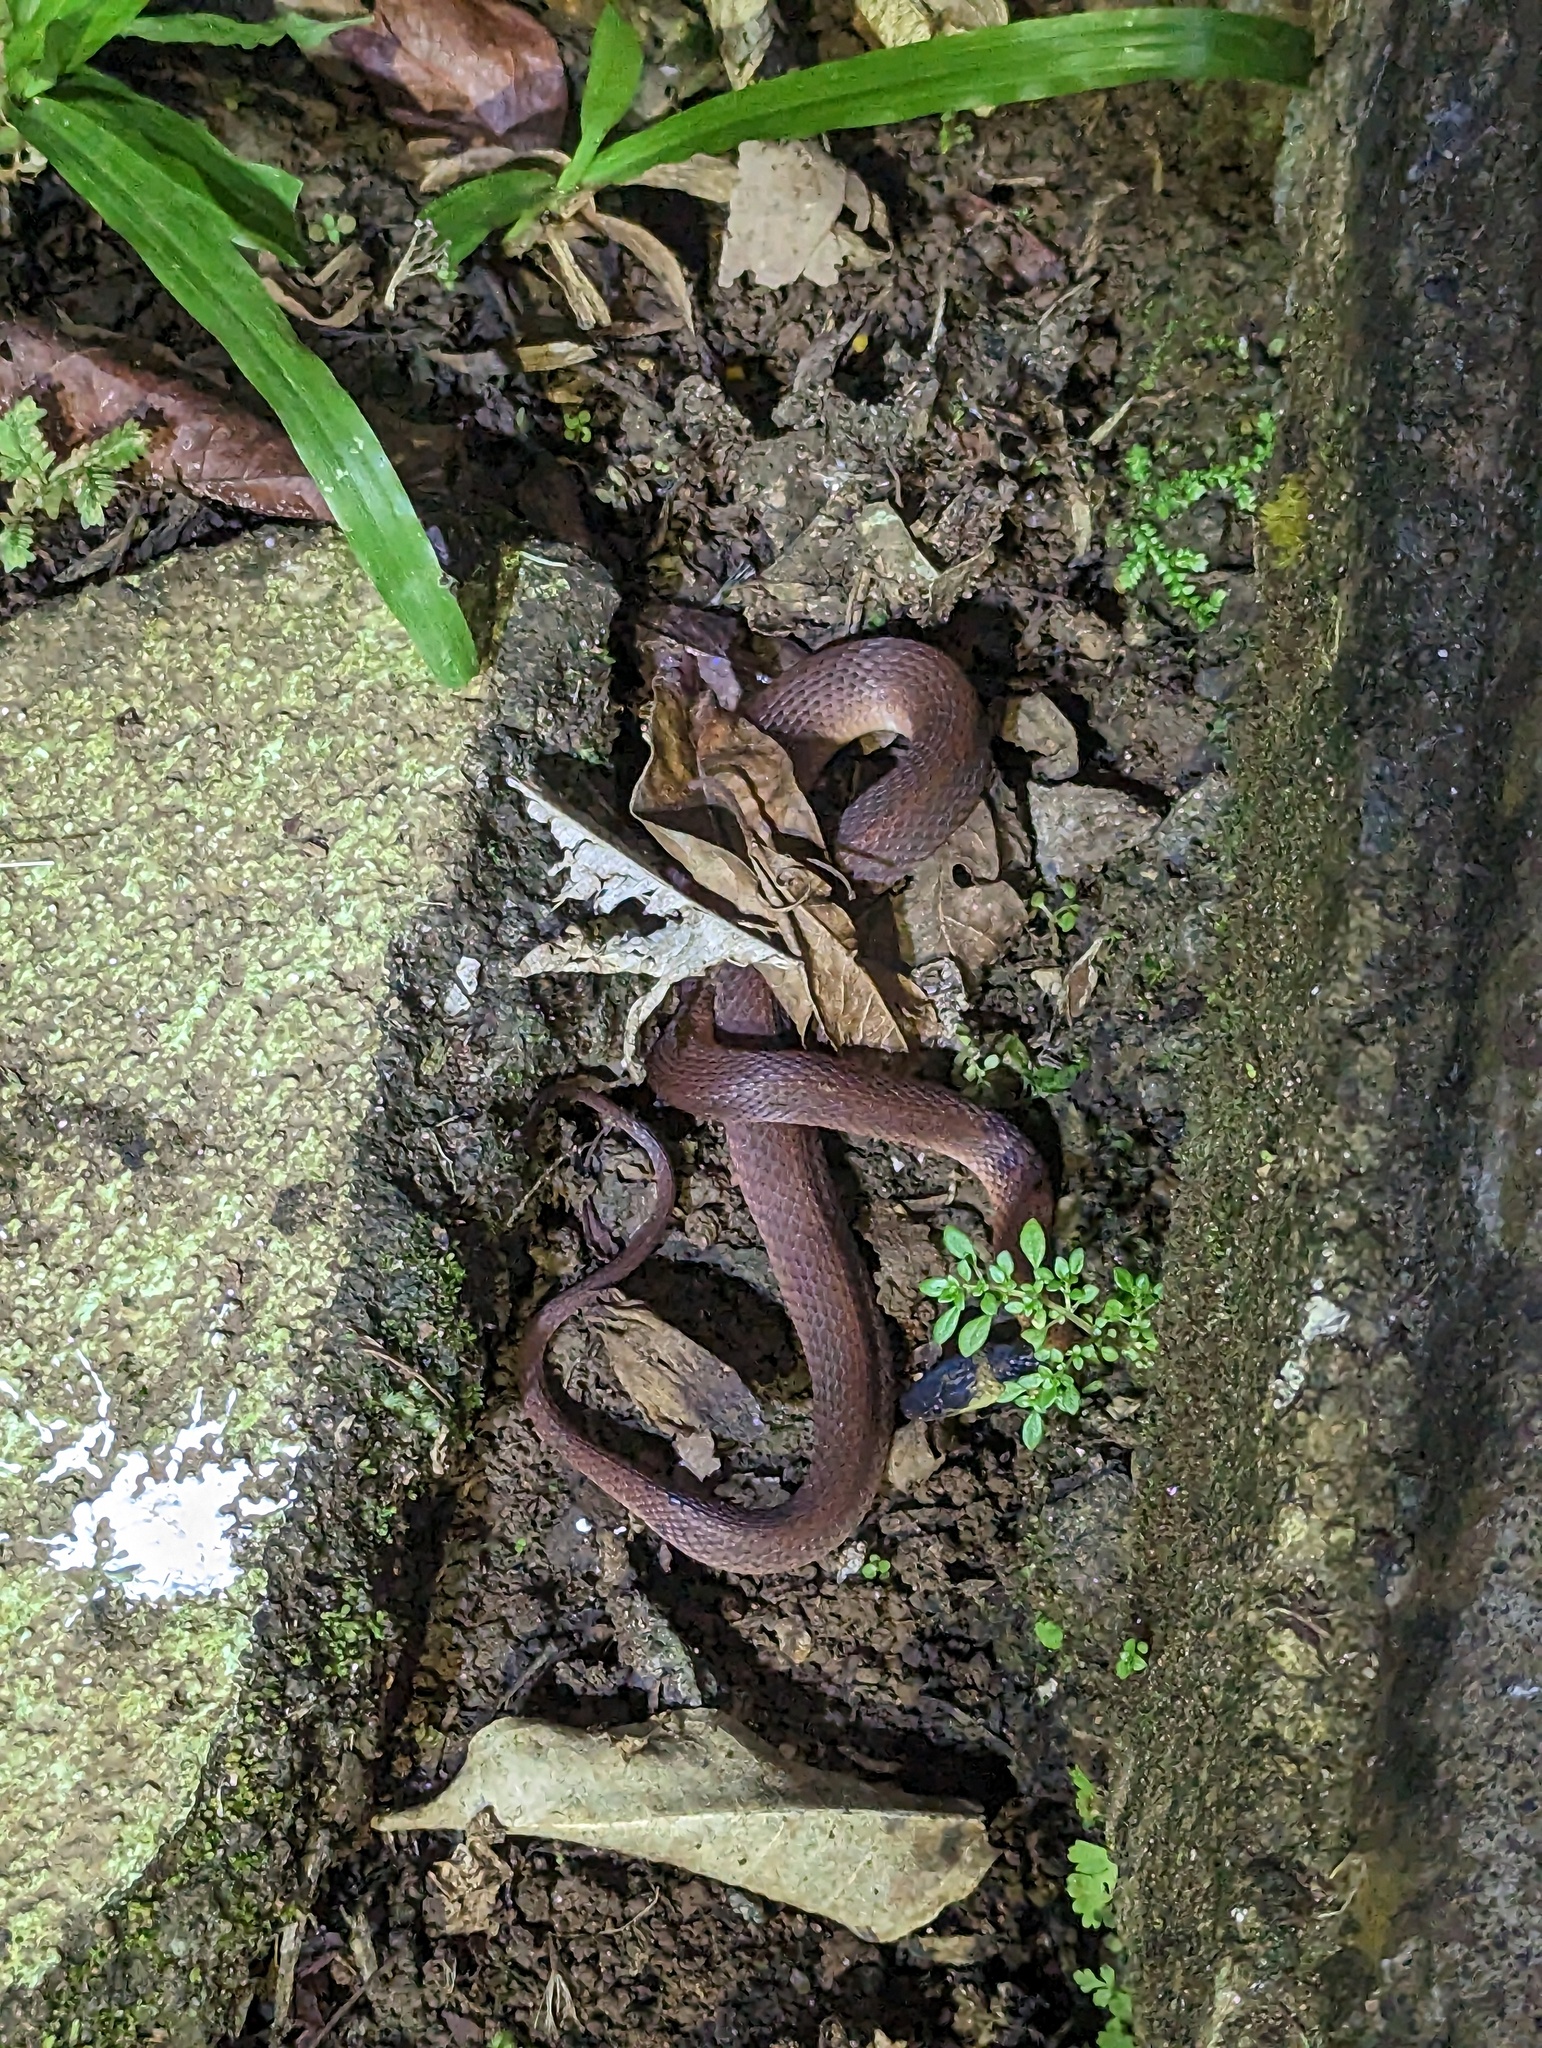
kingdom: Animalia
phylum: Chordata
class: Squamata
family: Colubridae
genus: Ninia
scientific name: Ninia sebae
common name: Redback coffee snake
